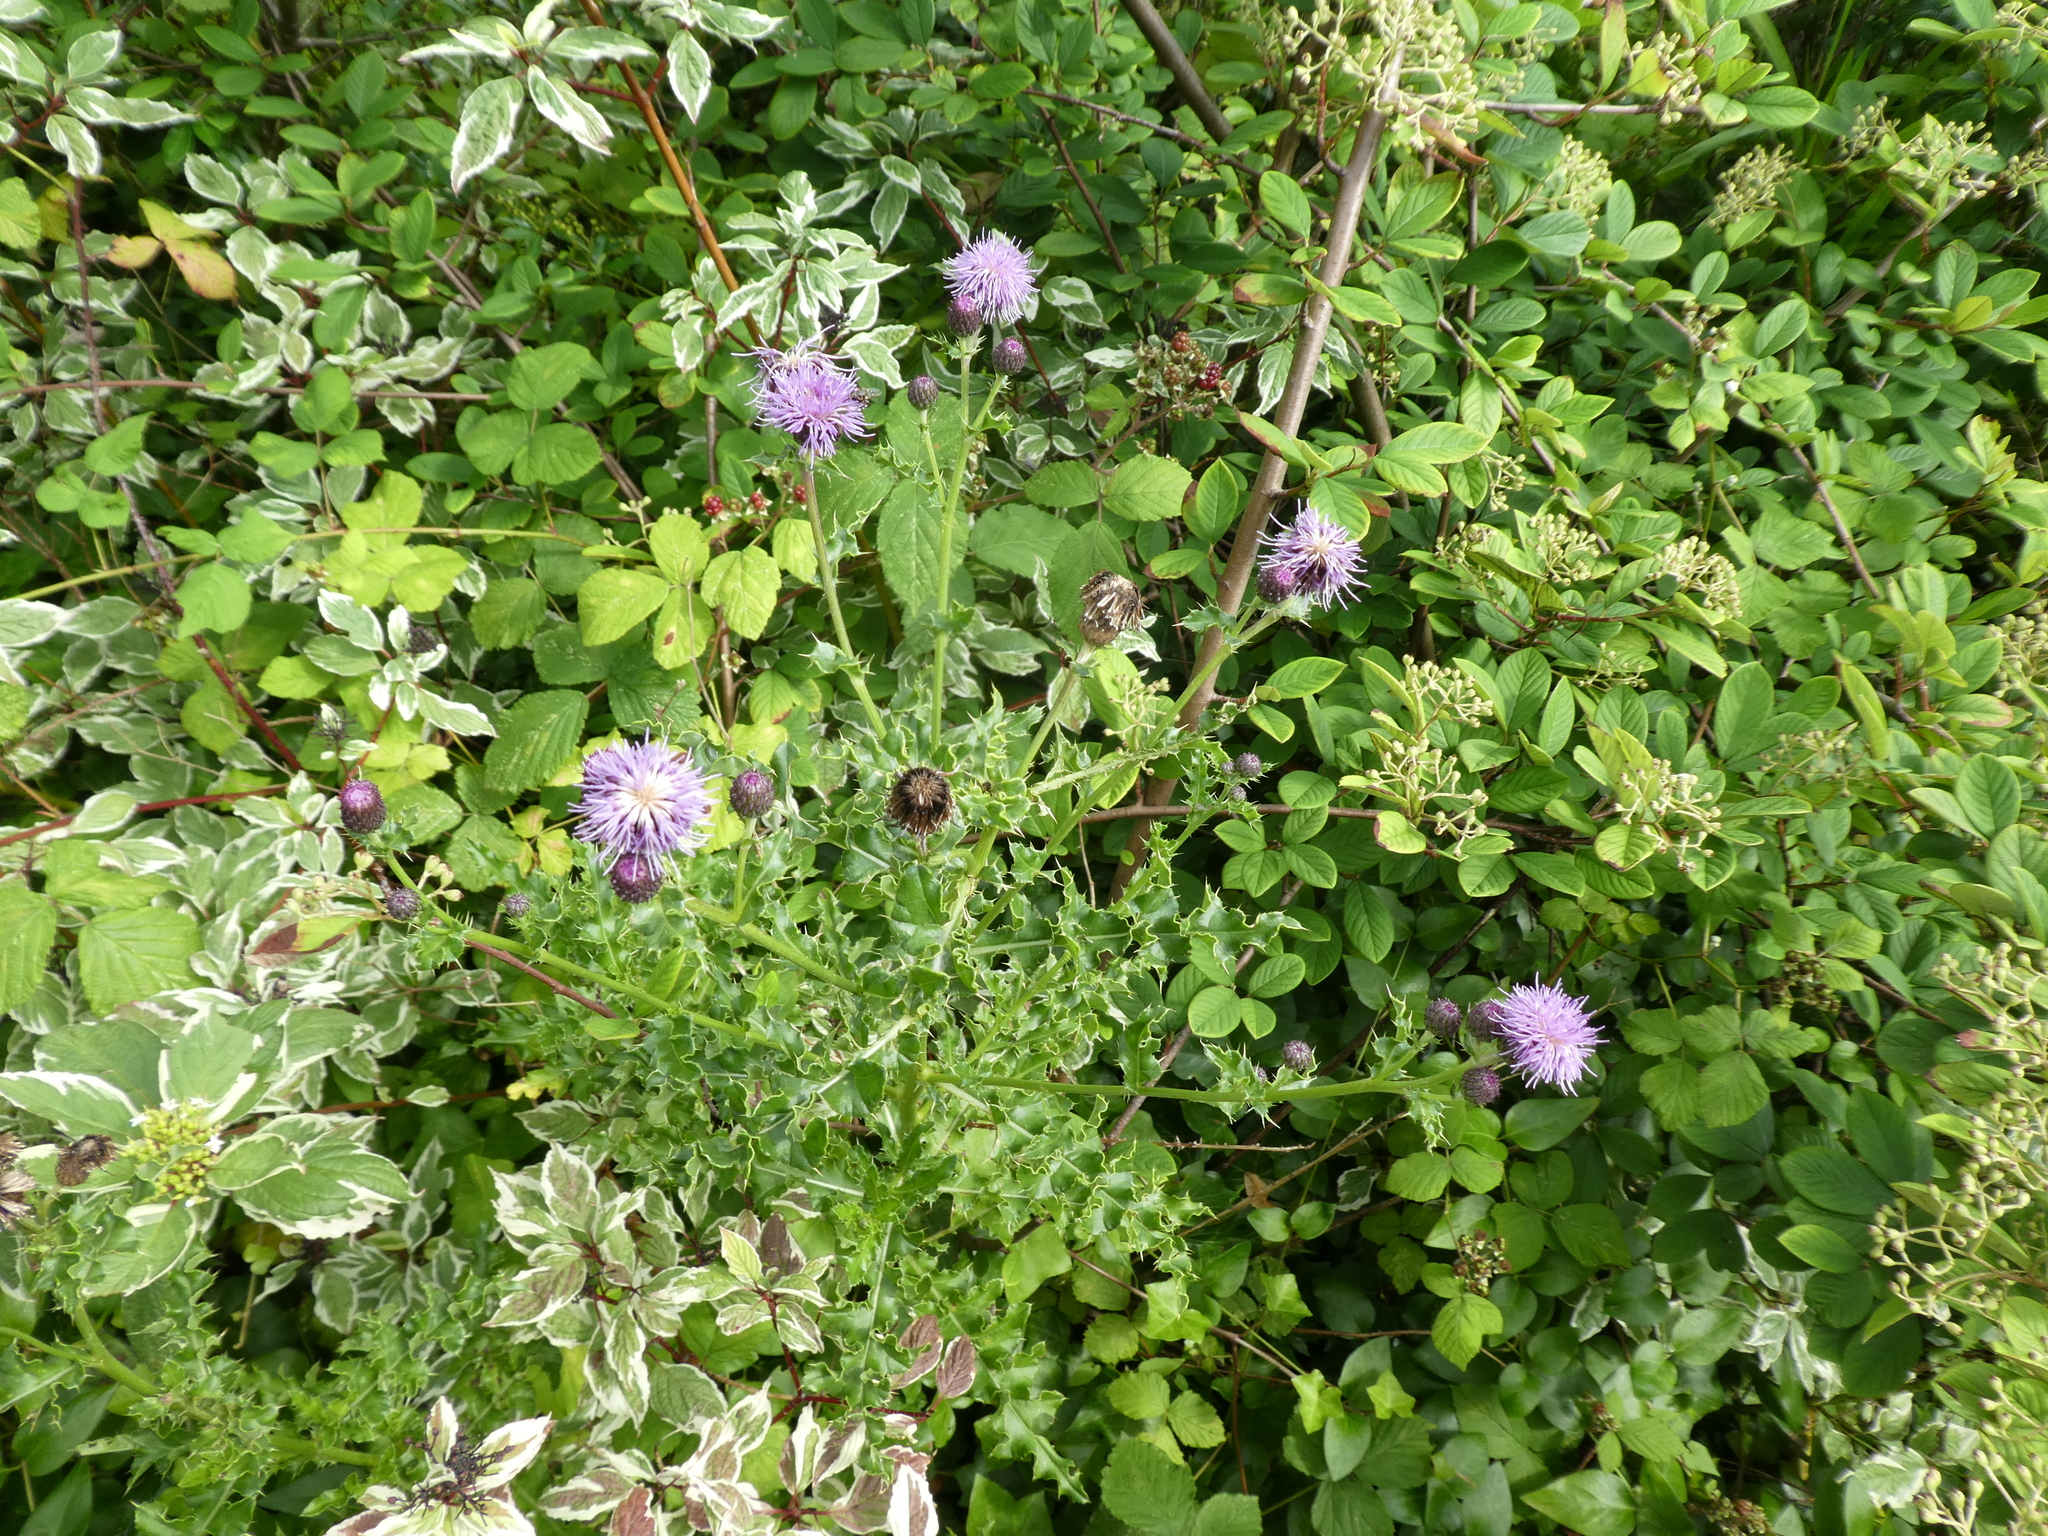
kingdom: Plantae
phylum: Tracheophyta
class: Magnoliopsida
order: Asterales
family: Asteraceae
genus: Cirsium
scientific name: Cirsium arvense
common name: Creeping thistle
